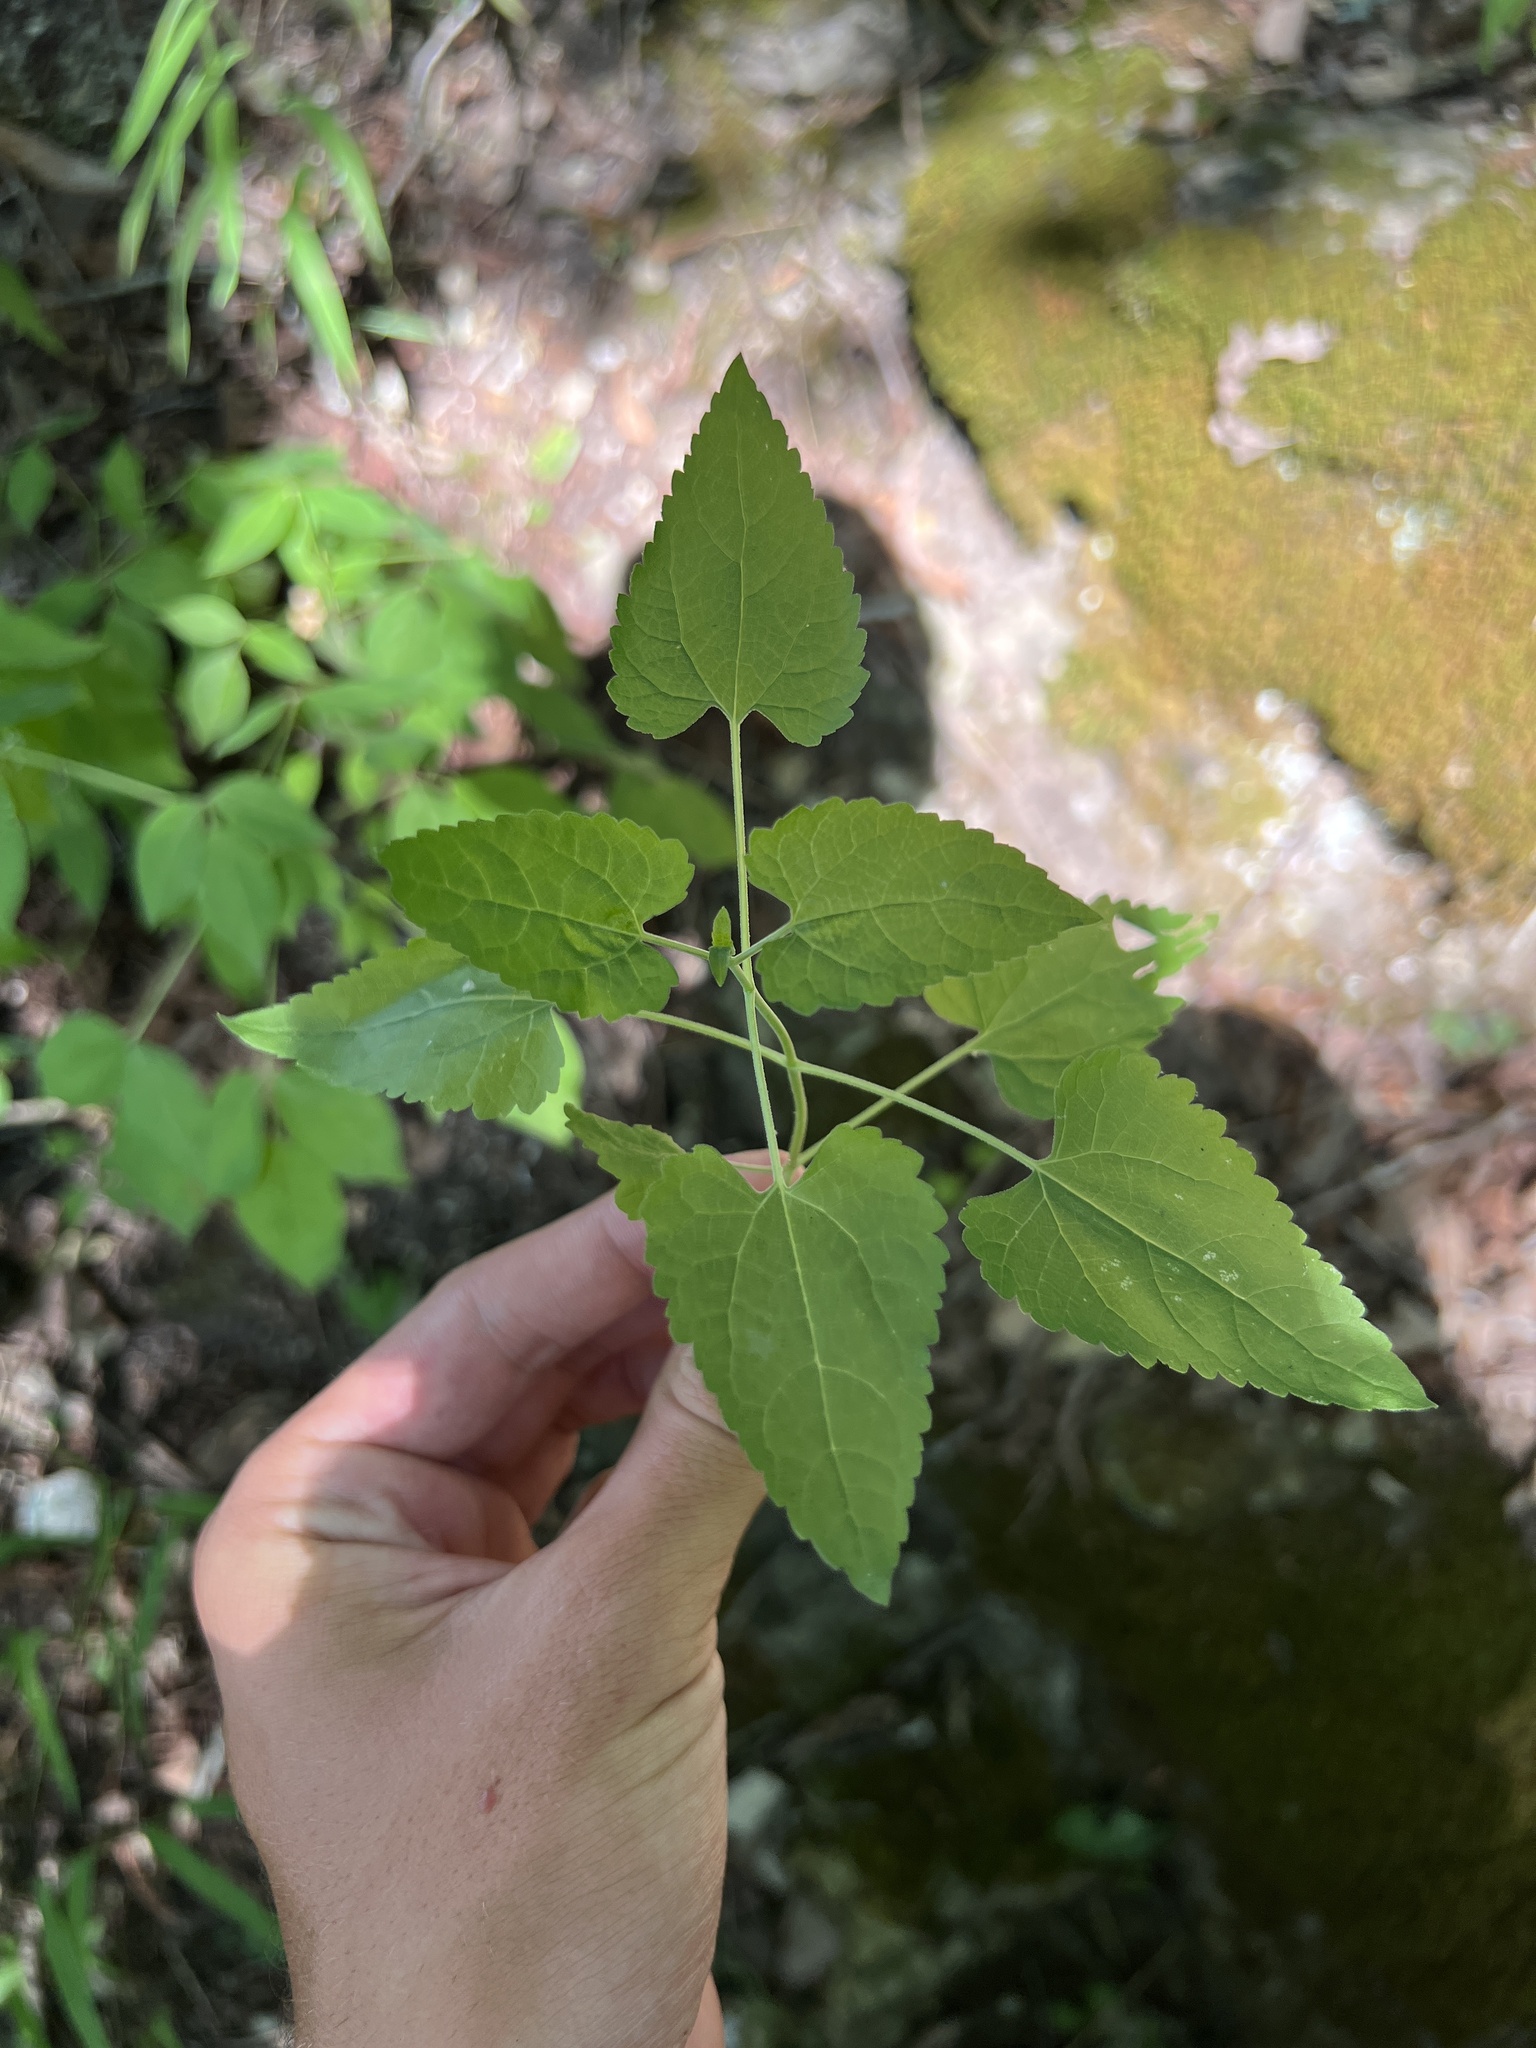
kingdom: Plantae
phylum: Tracheophyta
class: Magnoliopsida
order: Asterales
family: Asteraceae
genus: Fleischmannia
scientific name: Fleischmannia incarnata
